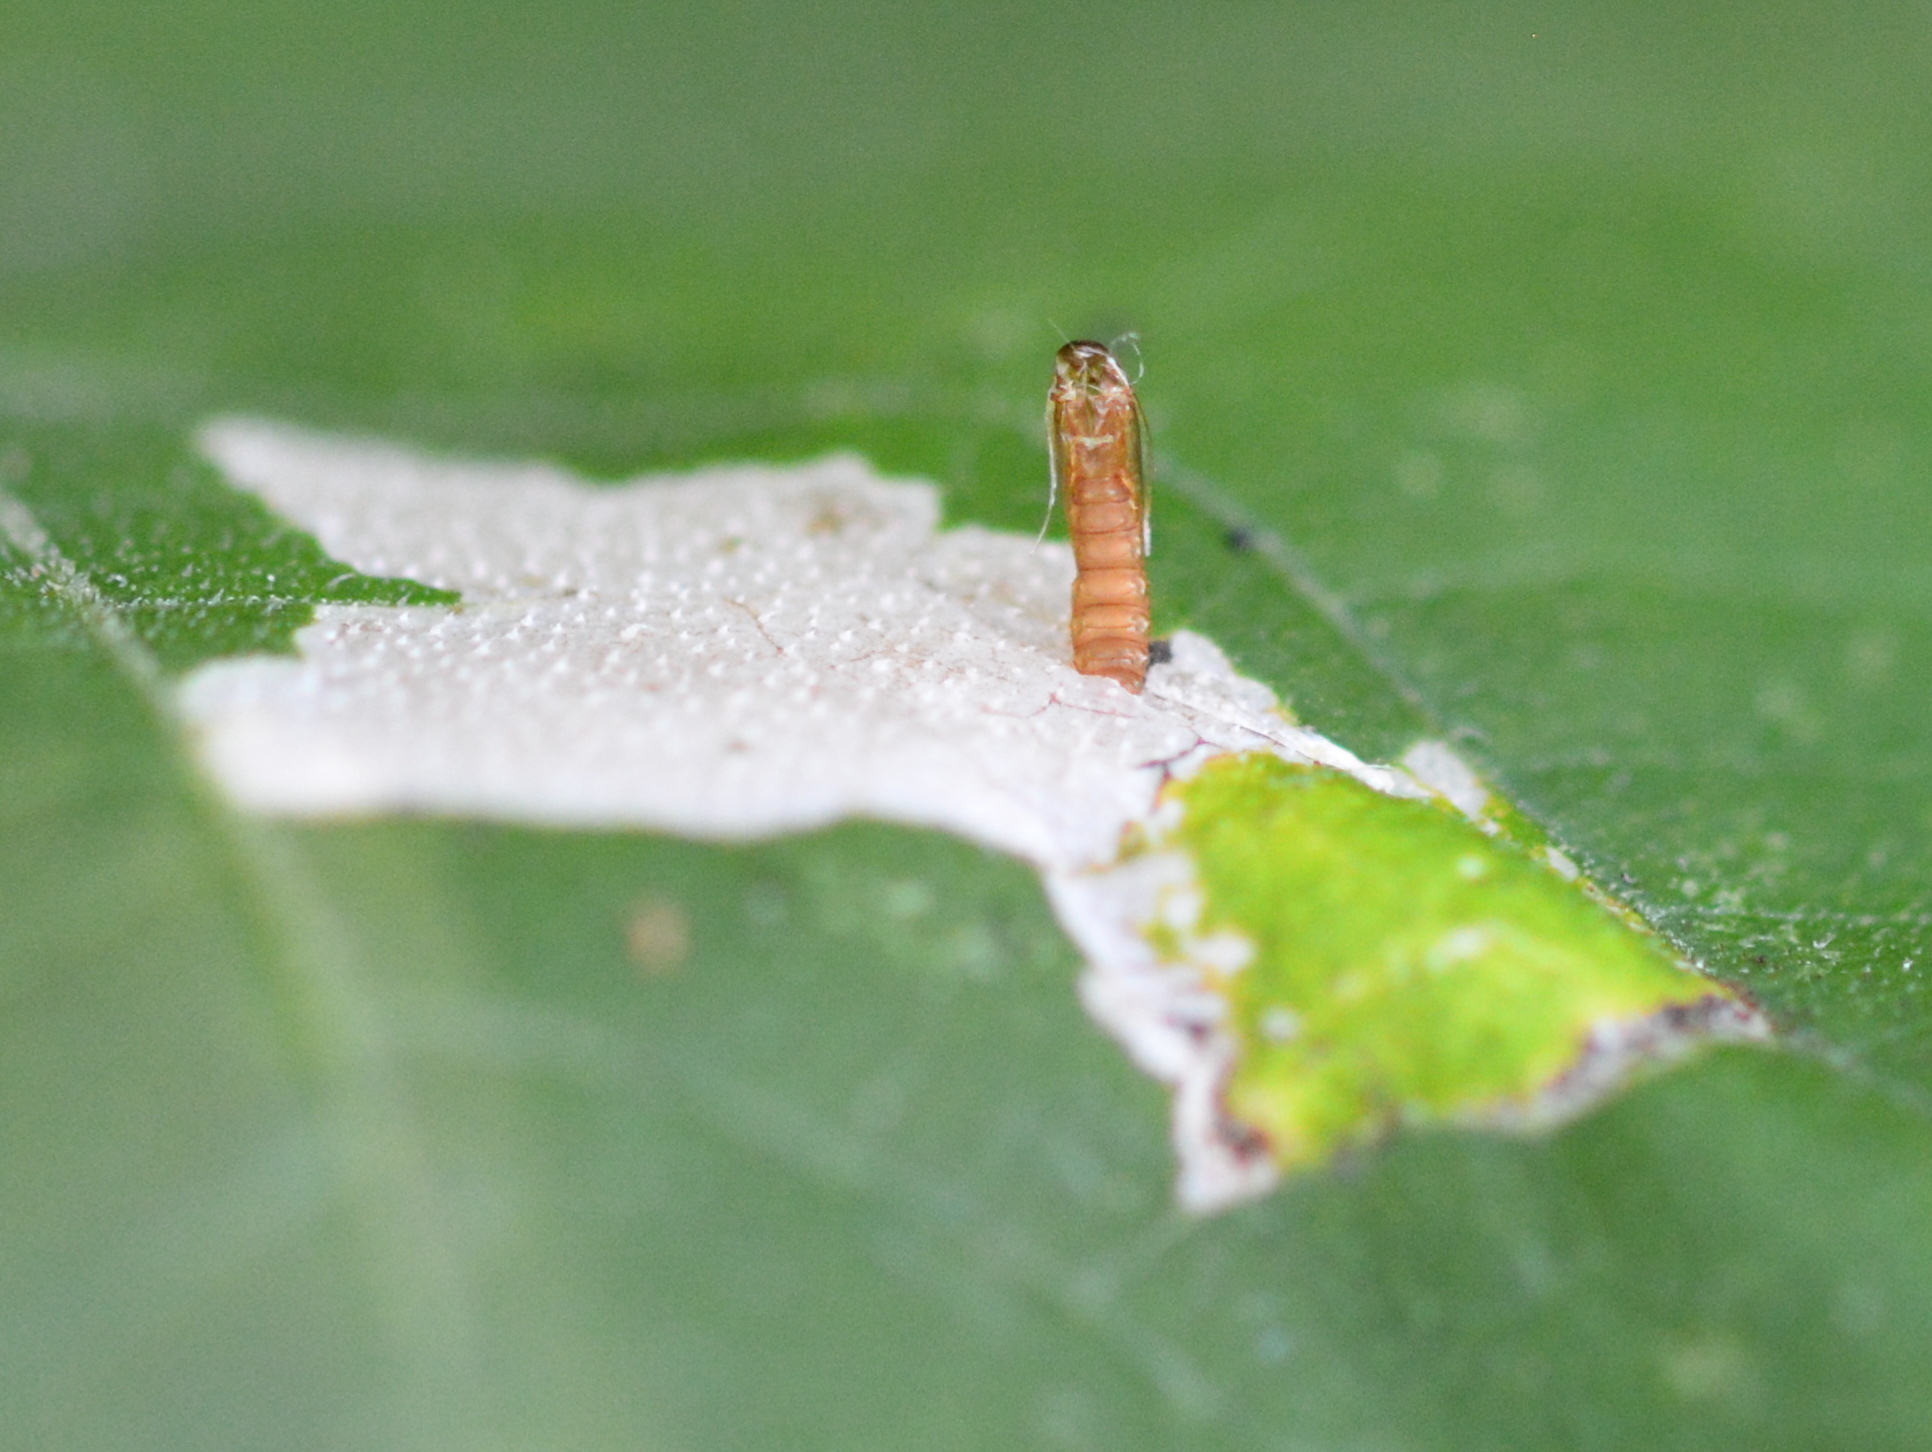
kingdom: Animalia
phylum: Arthropoda
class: Insecta
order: Lepidoptera
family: Tischeriidae
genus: Astrotischeria
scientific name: Astrotischeria ambrosiaeella
